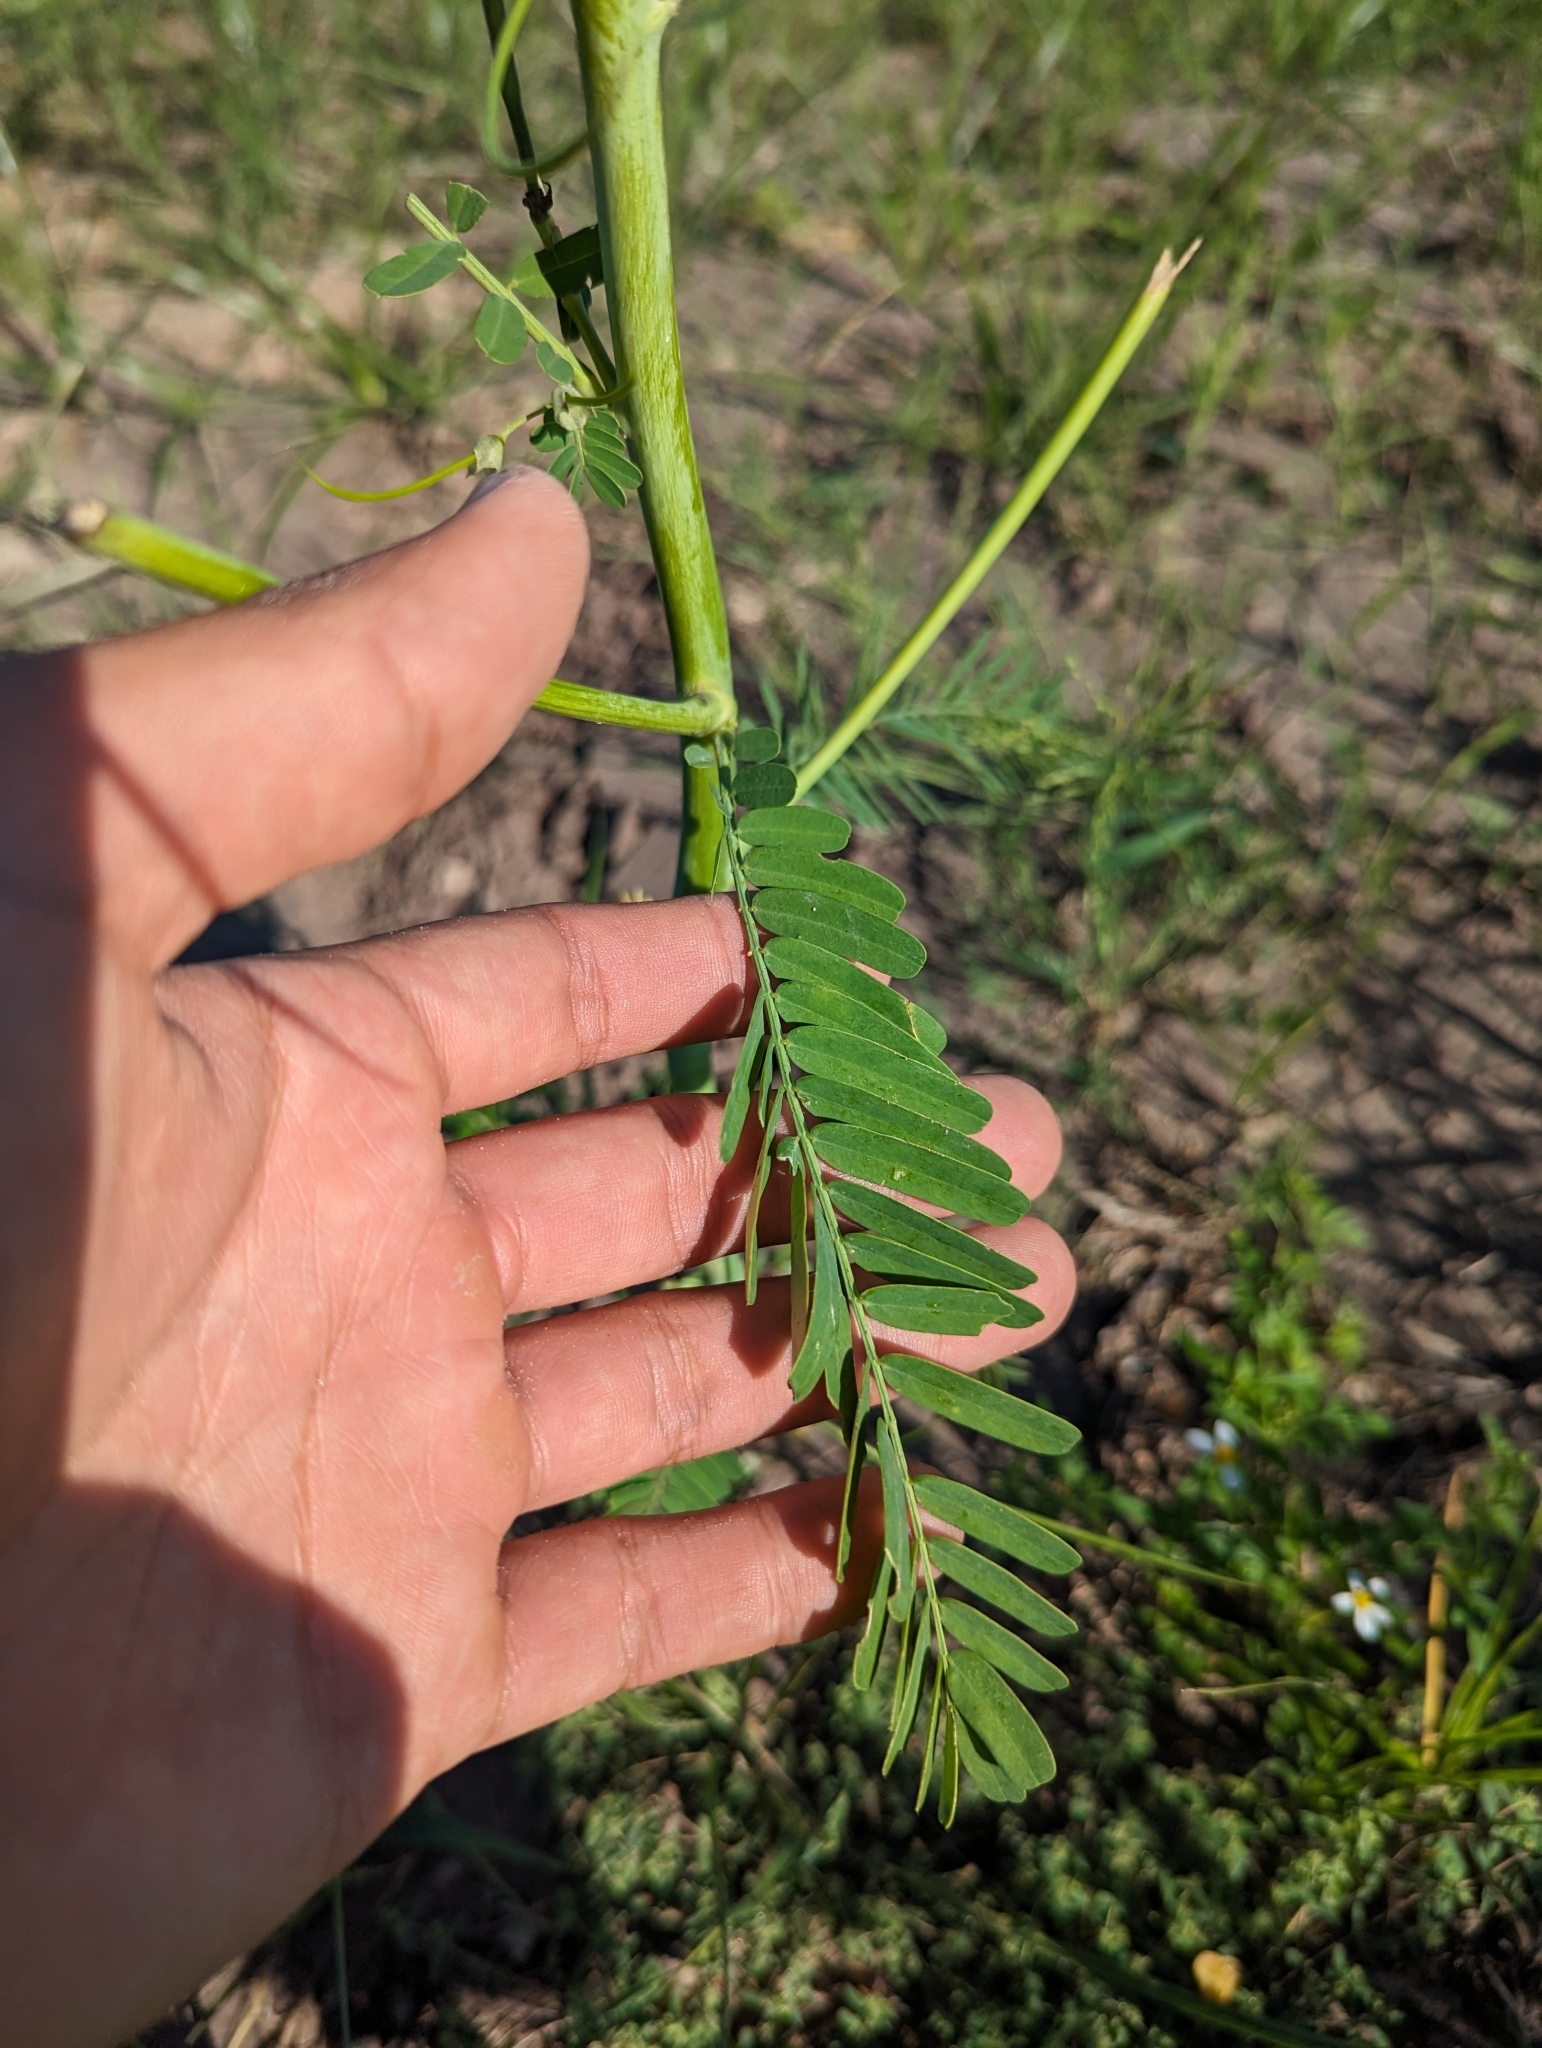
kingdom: Plantae
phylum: Tracheophyta
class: Magnoliopsida
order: Fabales
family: Fabaceae
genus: Sesbania
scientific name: Sesbania herbacea
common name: Bigpod sesbania
